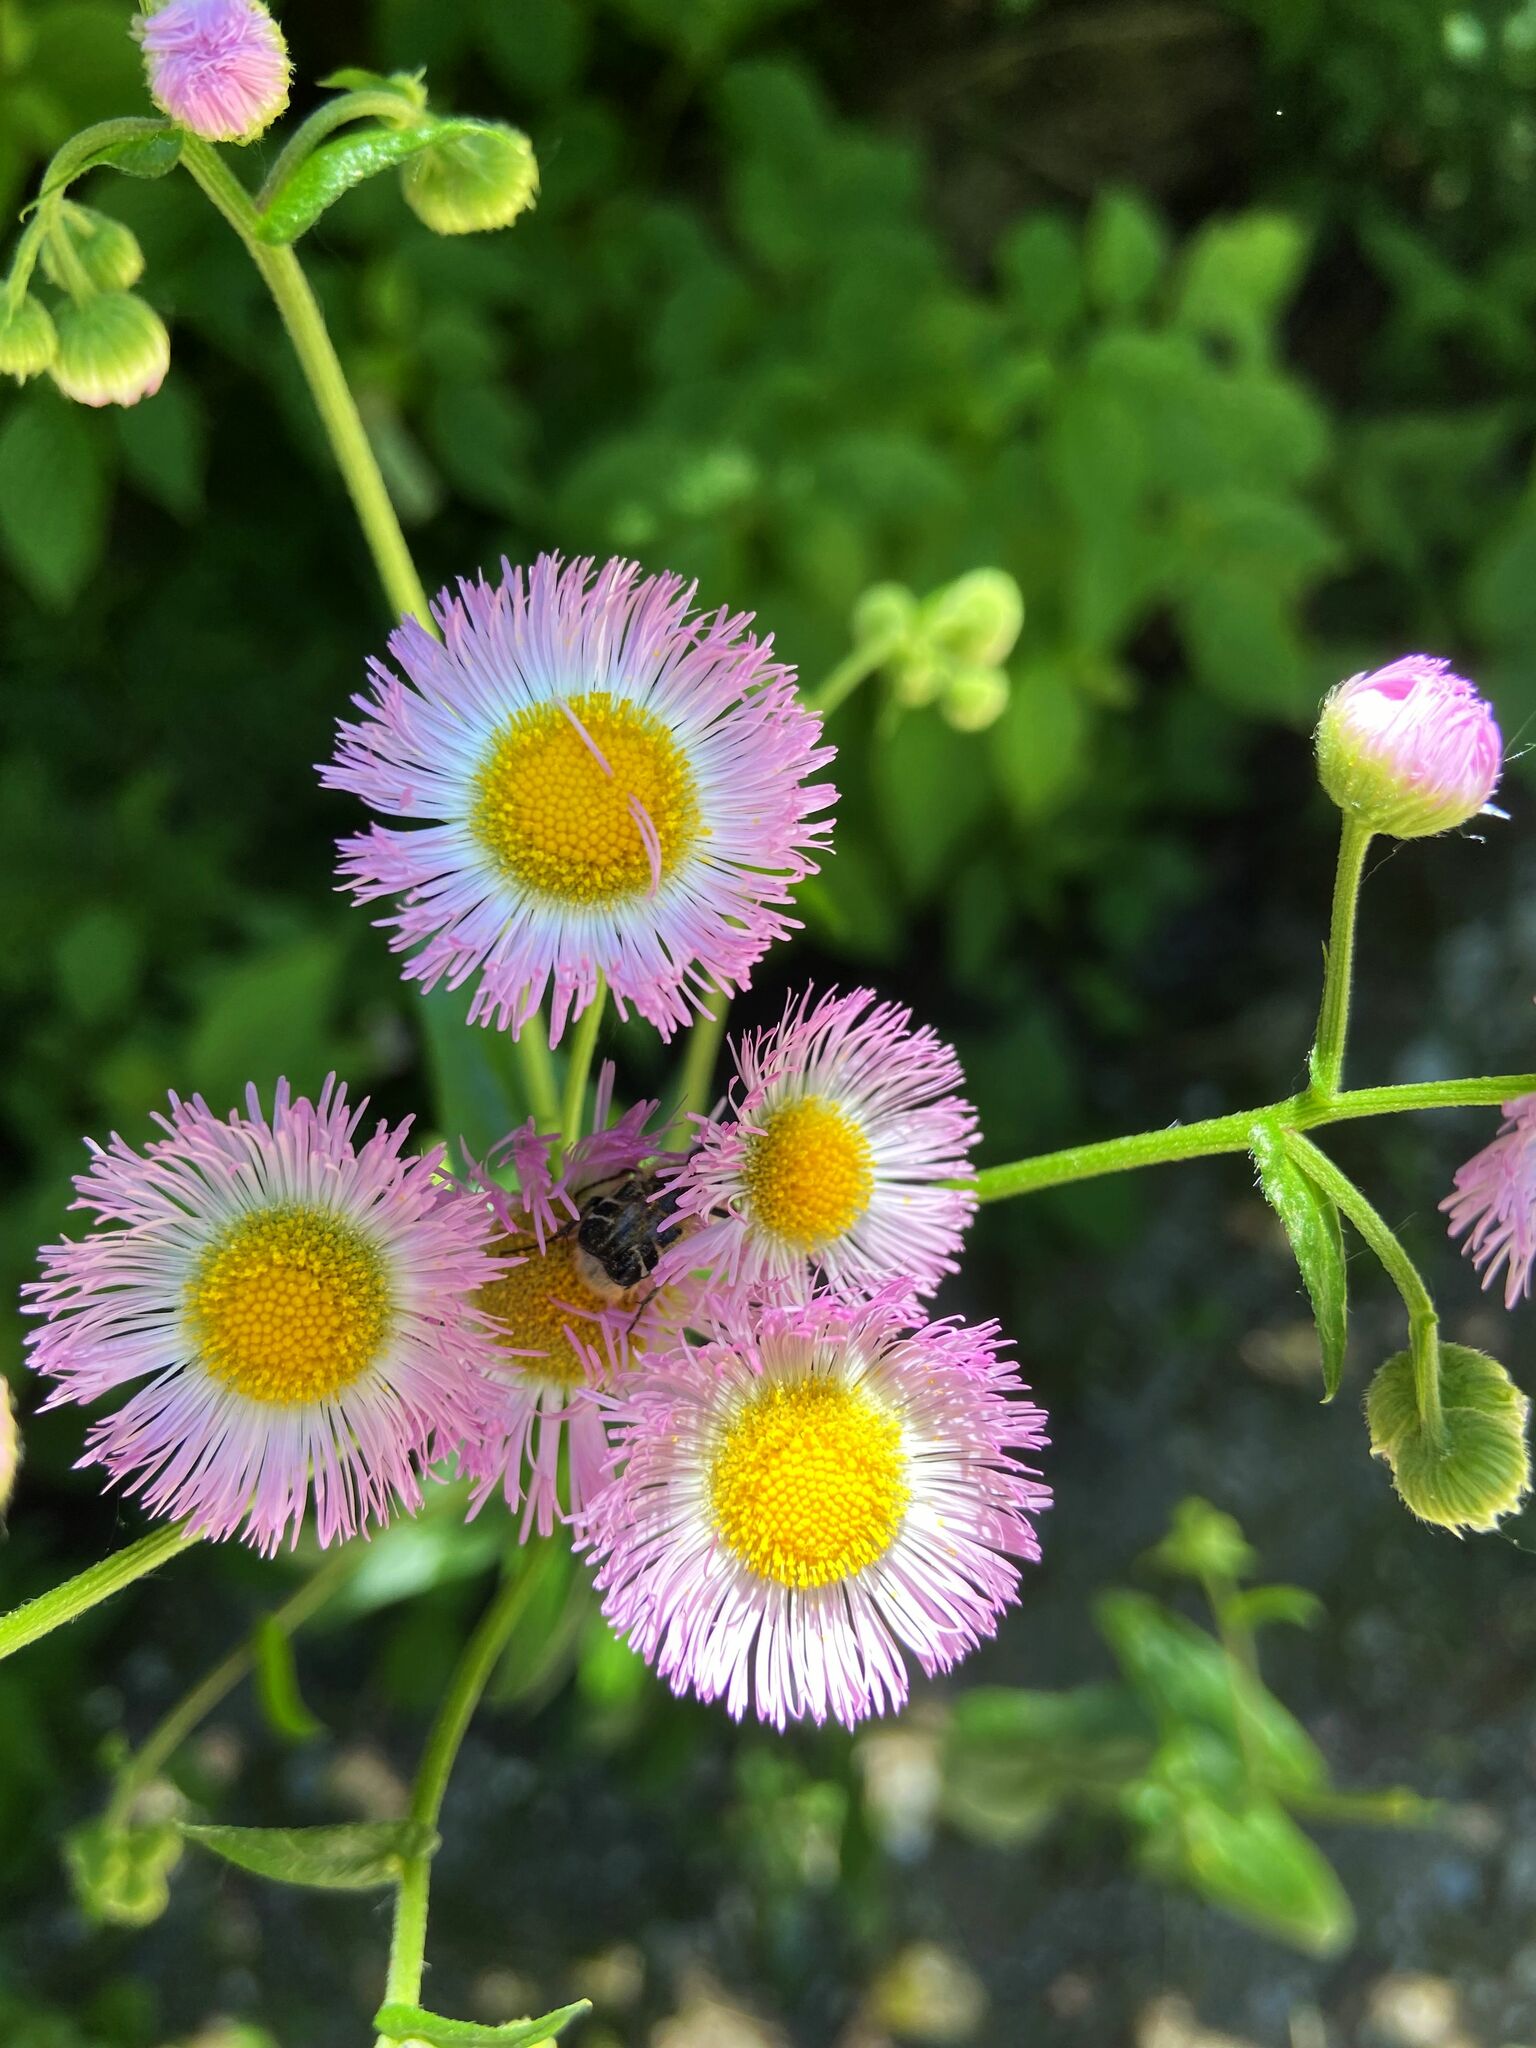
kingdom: Plantae
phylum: Tracheophyta
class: Magnoliopsida
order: Asterales
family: Asteraceae
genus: Erigeron
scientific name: Erigeron philadelphicus
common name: Robin's-plantain
